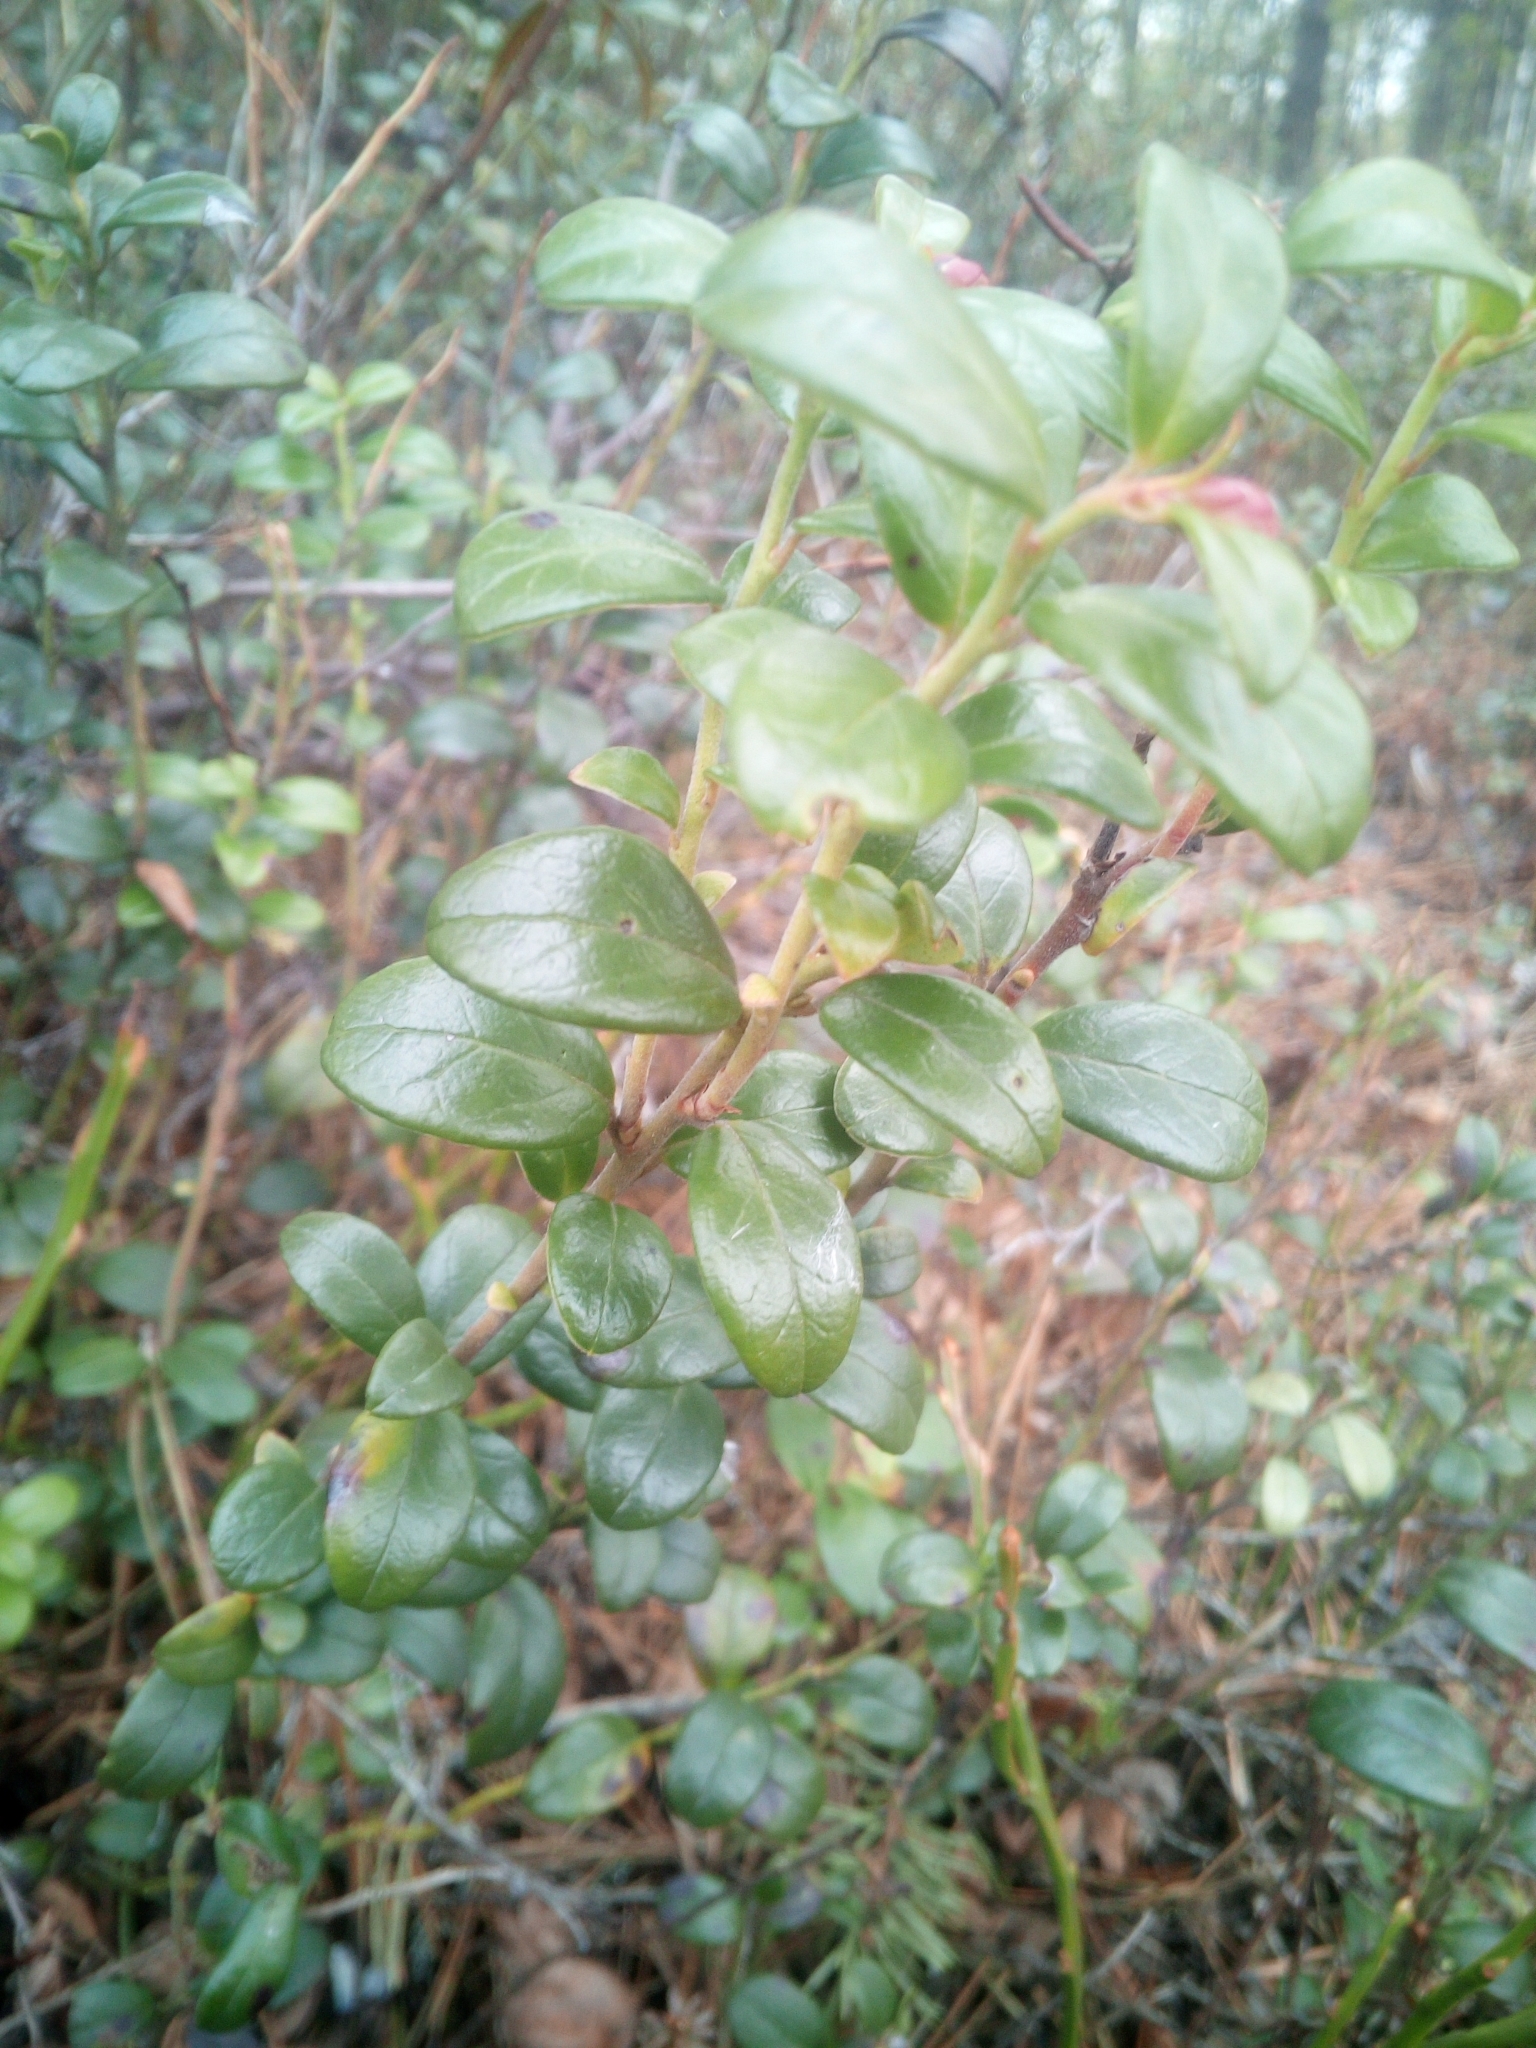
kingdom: Plantae
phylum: Tracheophyta
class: Magnoliopsida
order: Ericales
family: Ericaceae
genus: Vaccinium
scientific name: Vaccinium vitis-idaea
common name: Cowberry
